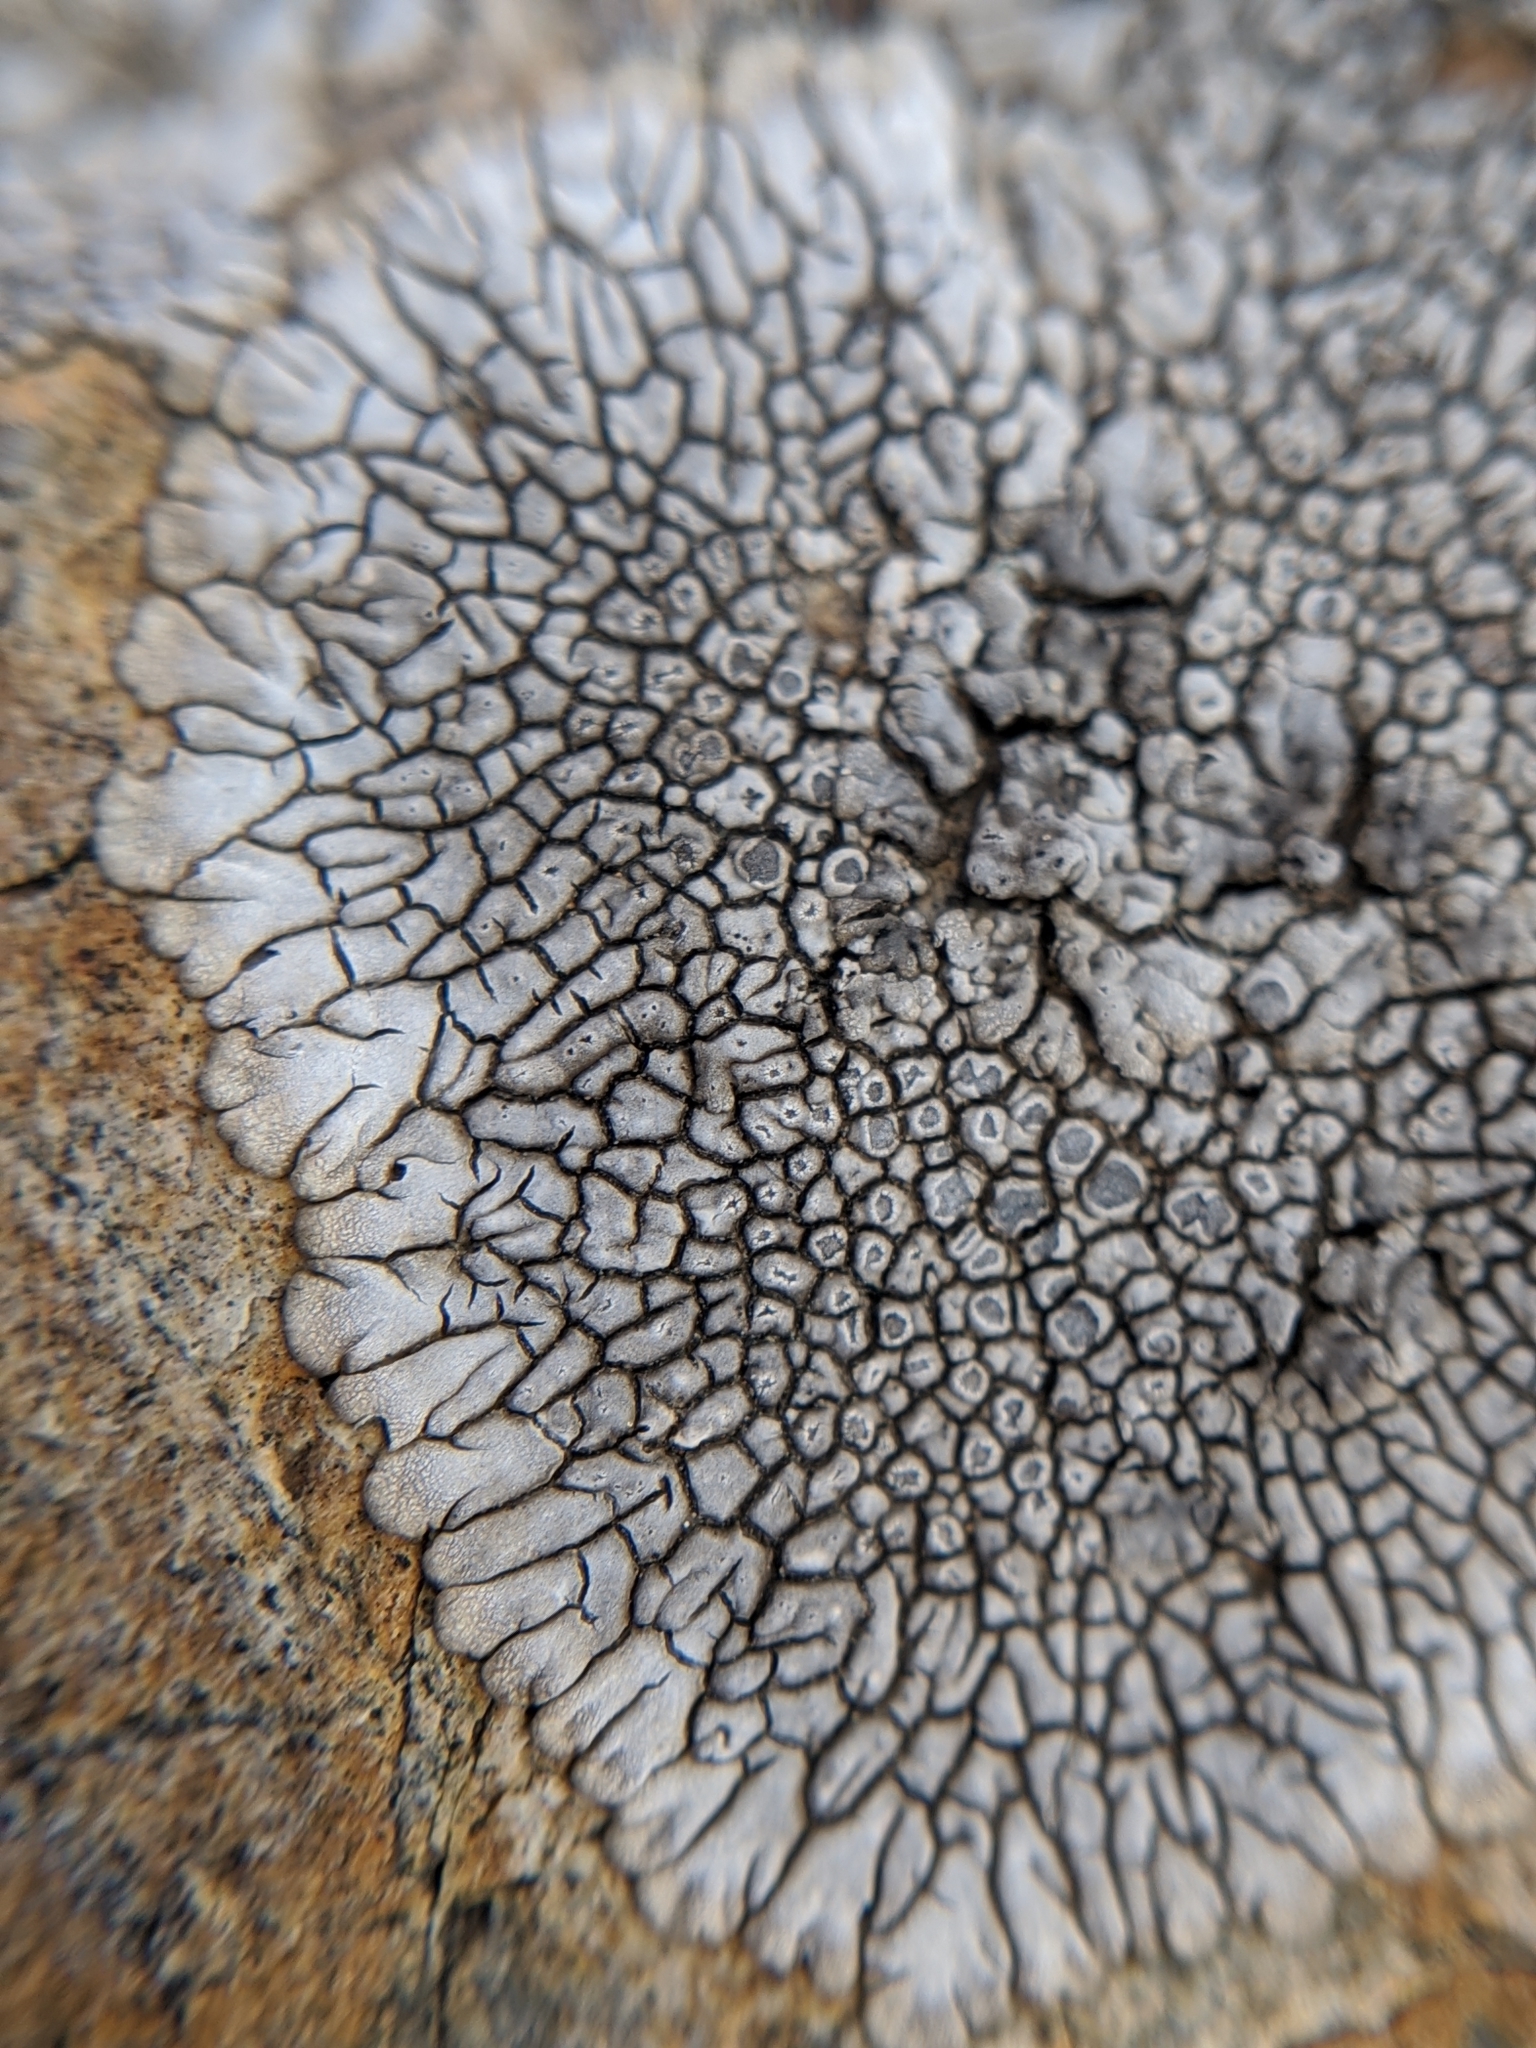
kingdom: Fungi
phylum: Ascomycota
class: Lecanoromycetes
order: Caliciales
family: Caliciaceae
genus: Dimelaena
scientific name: Dimelaena radiata
